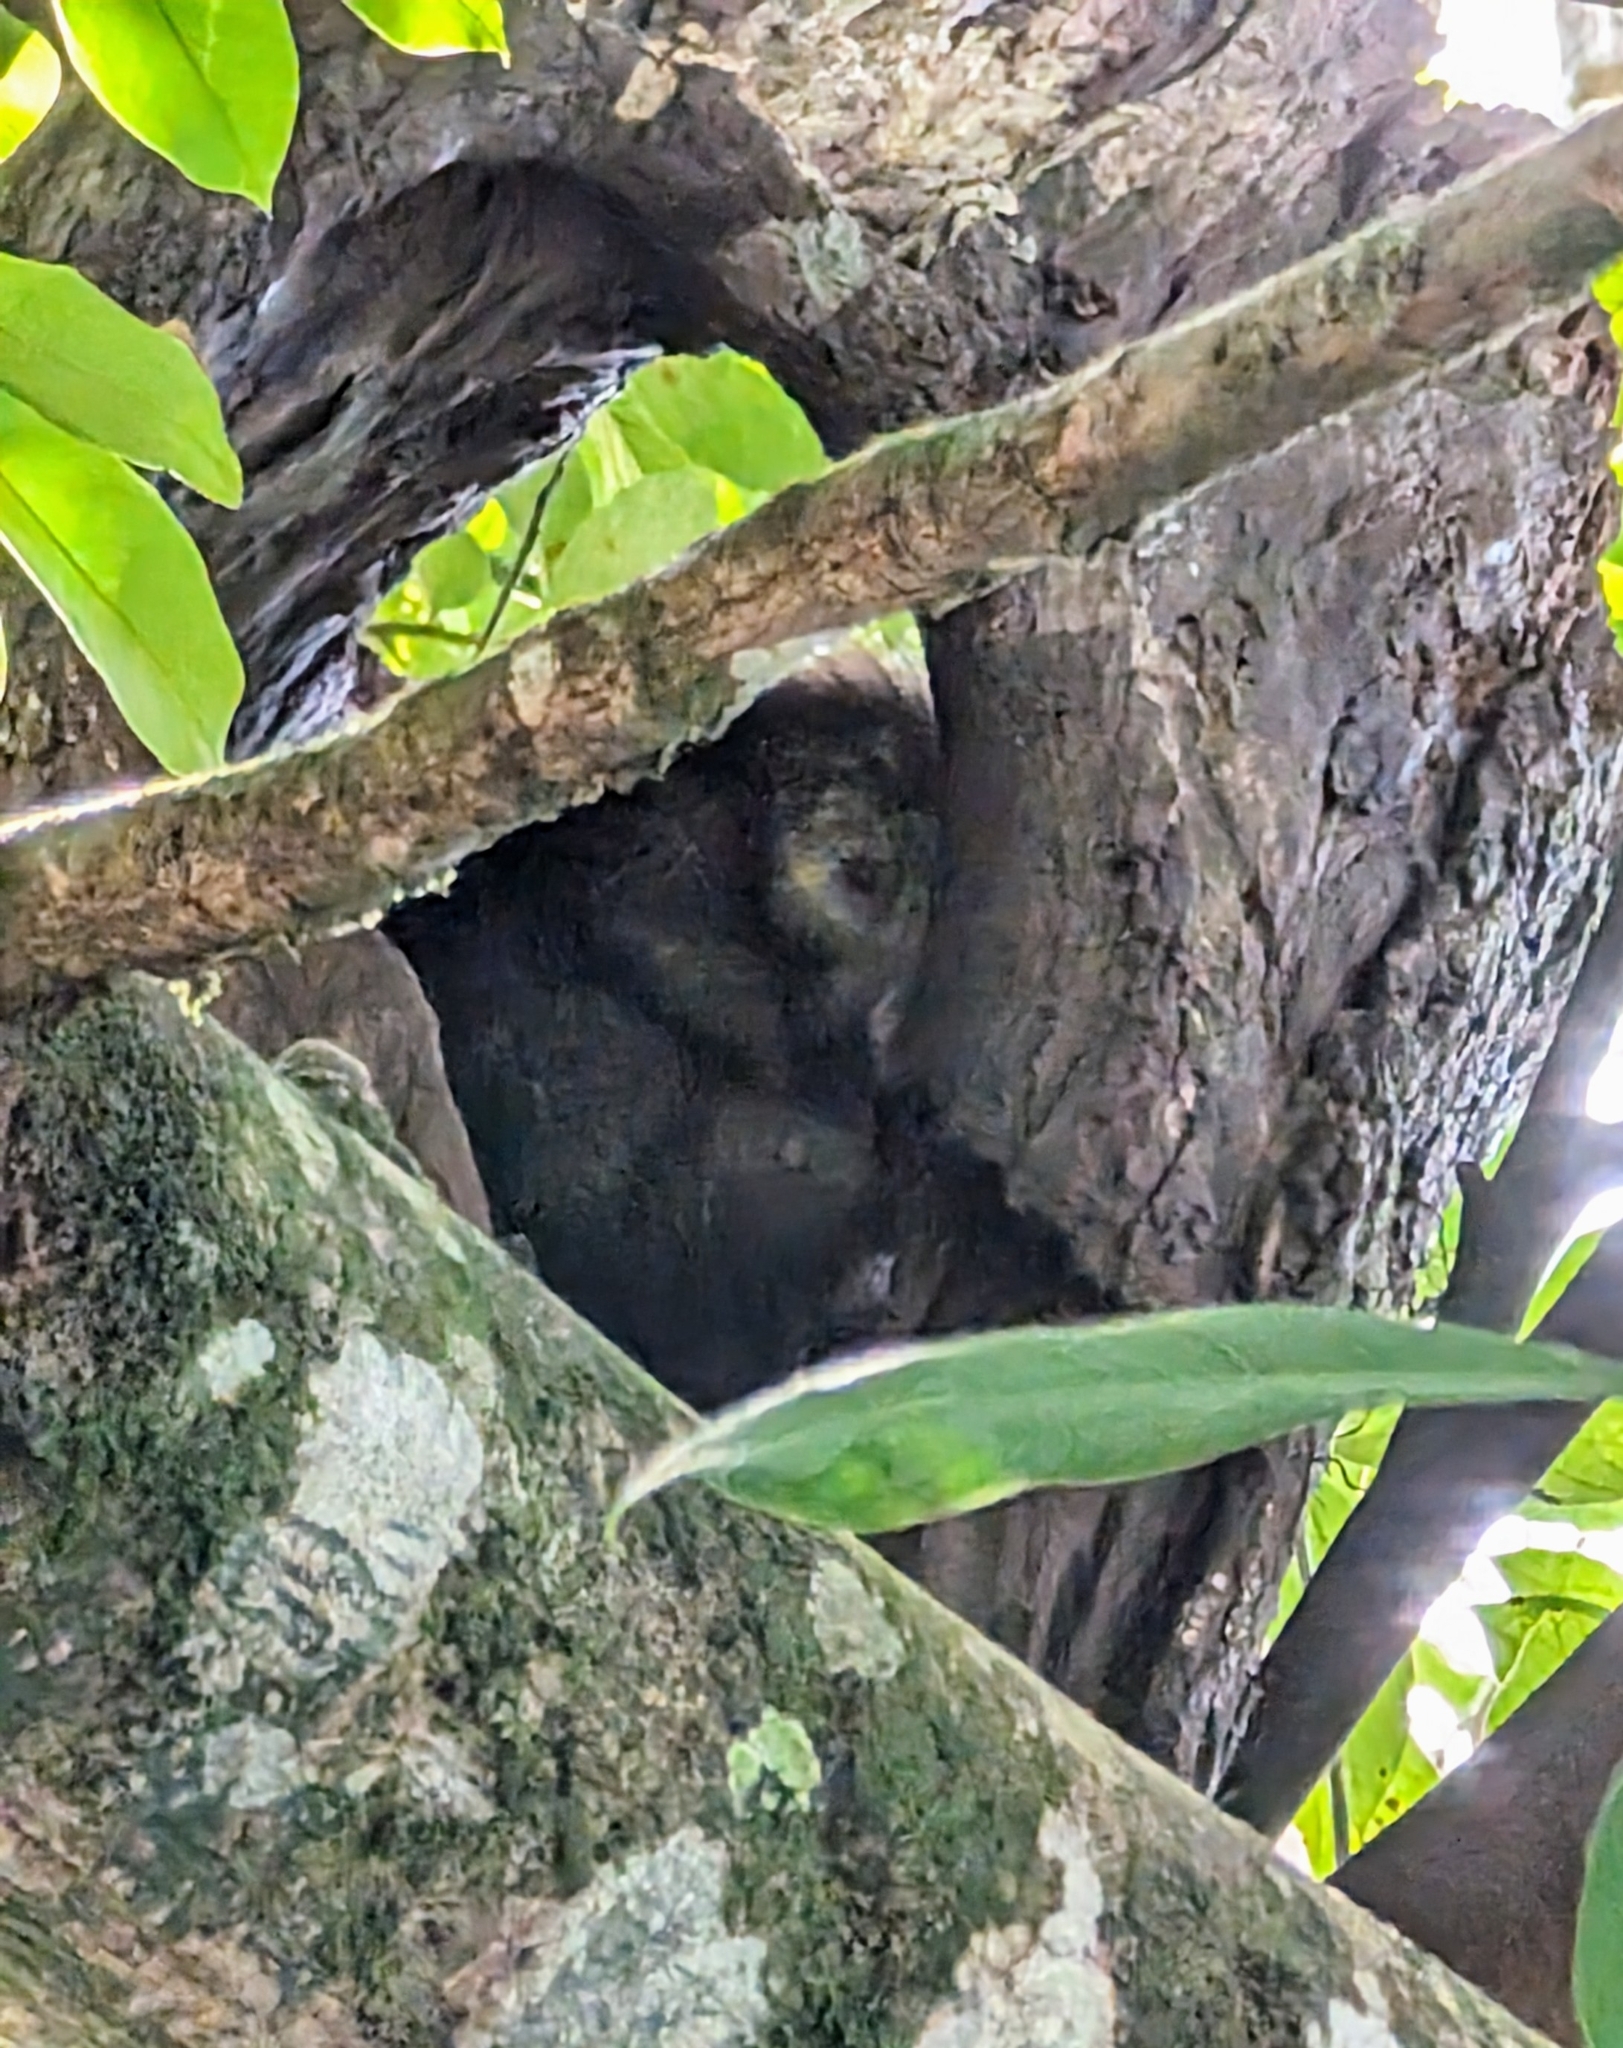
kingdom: Animalia
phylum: Chordata
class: Mammalia
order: Rodentia
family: Erethizontidae
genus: Sphiggurus
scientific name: Sphiggurus mexicanus
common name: Mexican hairy dwarf porcupine
